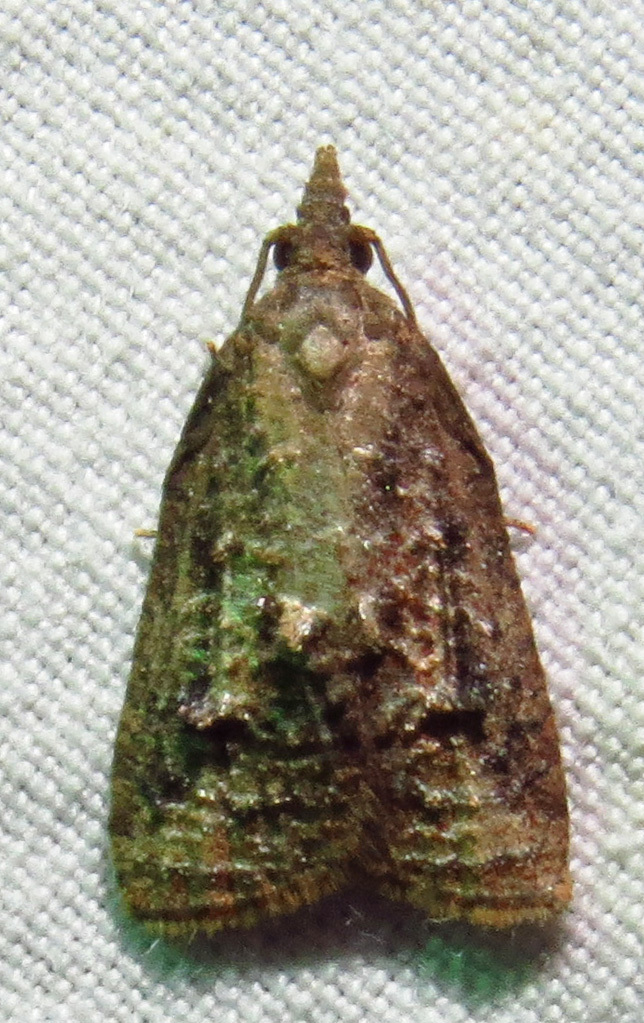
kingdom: Animalia
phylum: Arthropoda
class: Insecta
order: Lepidoptera
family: Tortricidae
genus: Platynota
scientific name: Platynota idaeusalis
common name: Tufted apple bud moth
